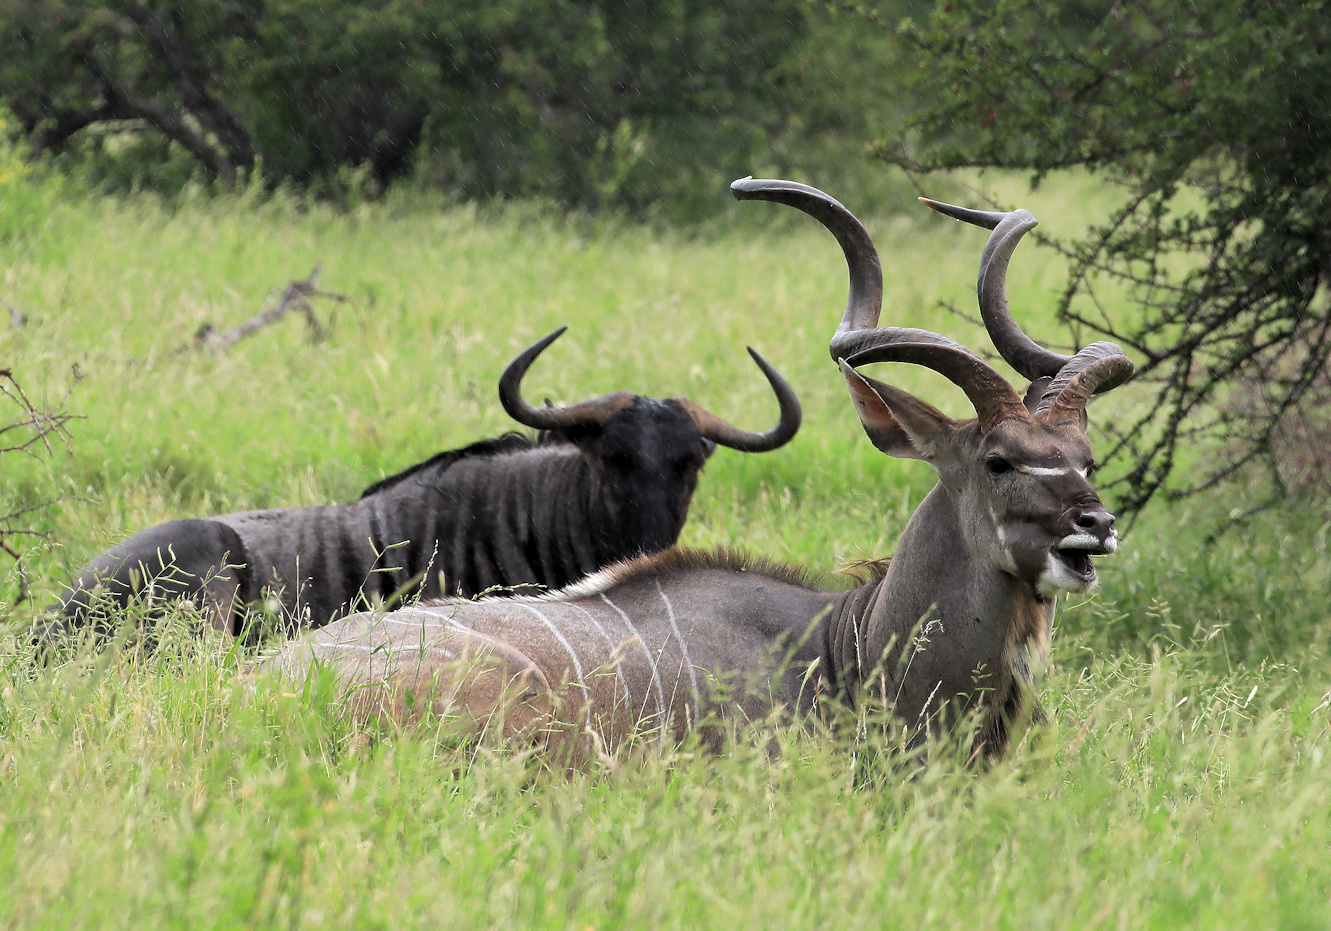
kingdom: Animalia
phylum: Chordata
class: Mammalia
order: Artiodactyla
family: Bovidae
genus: Tragelaphus
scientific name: Tragelaphus strepsiceros
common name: Greater kudu
